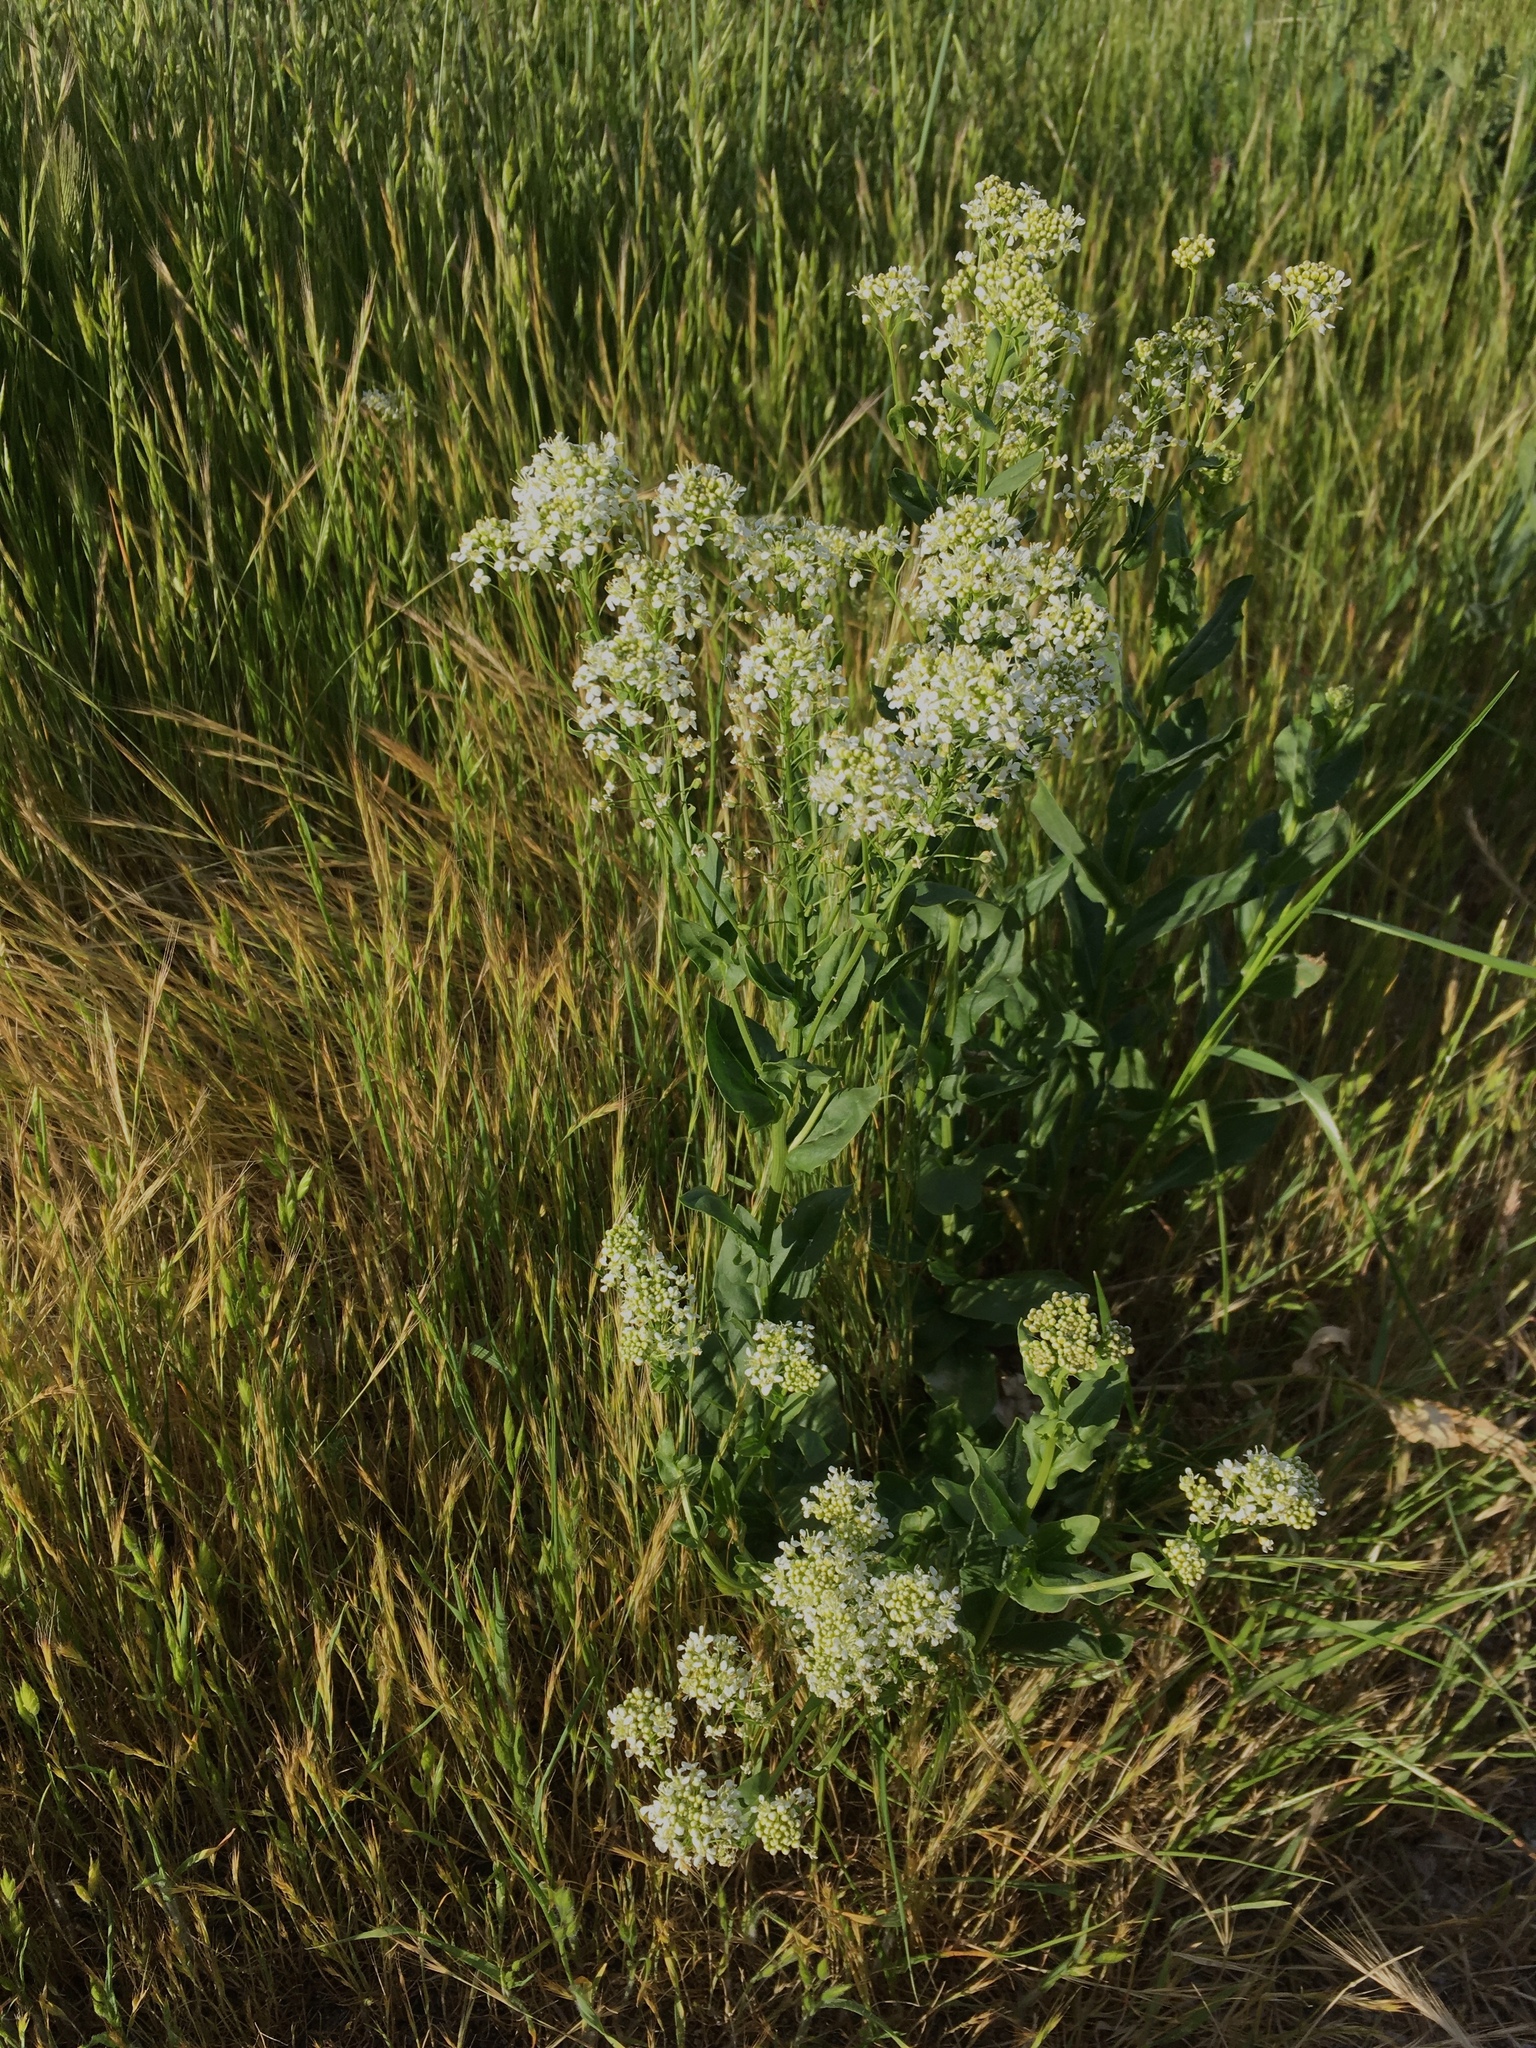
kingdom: Plantae
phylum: Tracheophyta
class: Magnoliopsida
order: Brassicales
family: Brassicaceae
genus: Lepidium
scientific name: Lepidium draba
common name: Hoary cress
